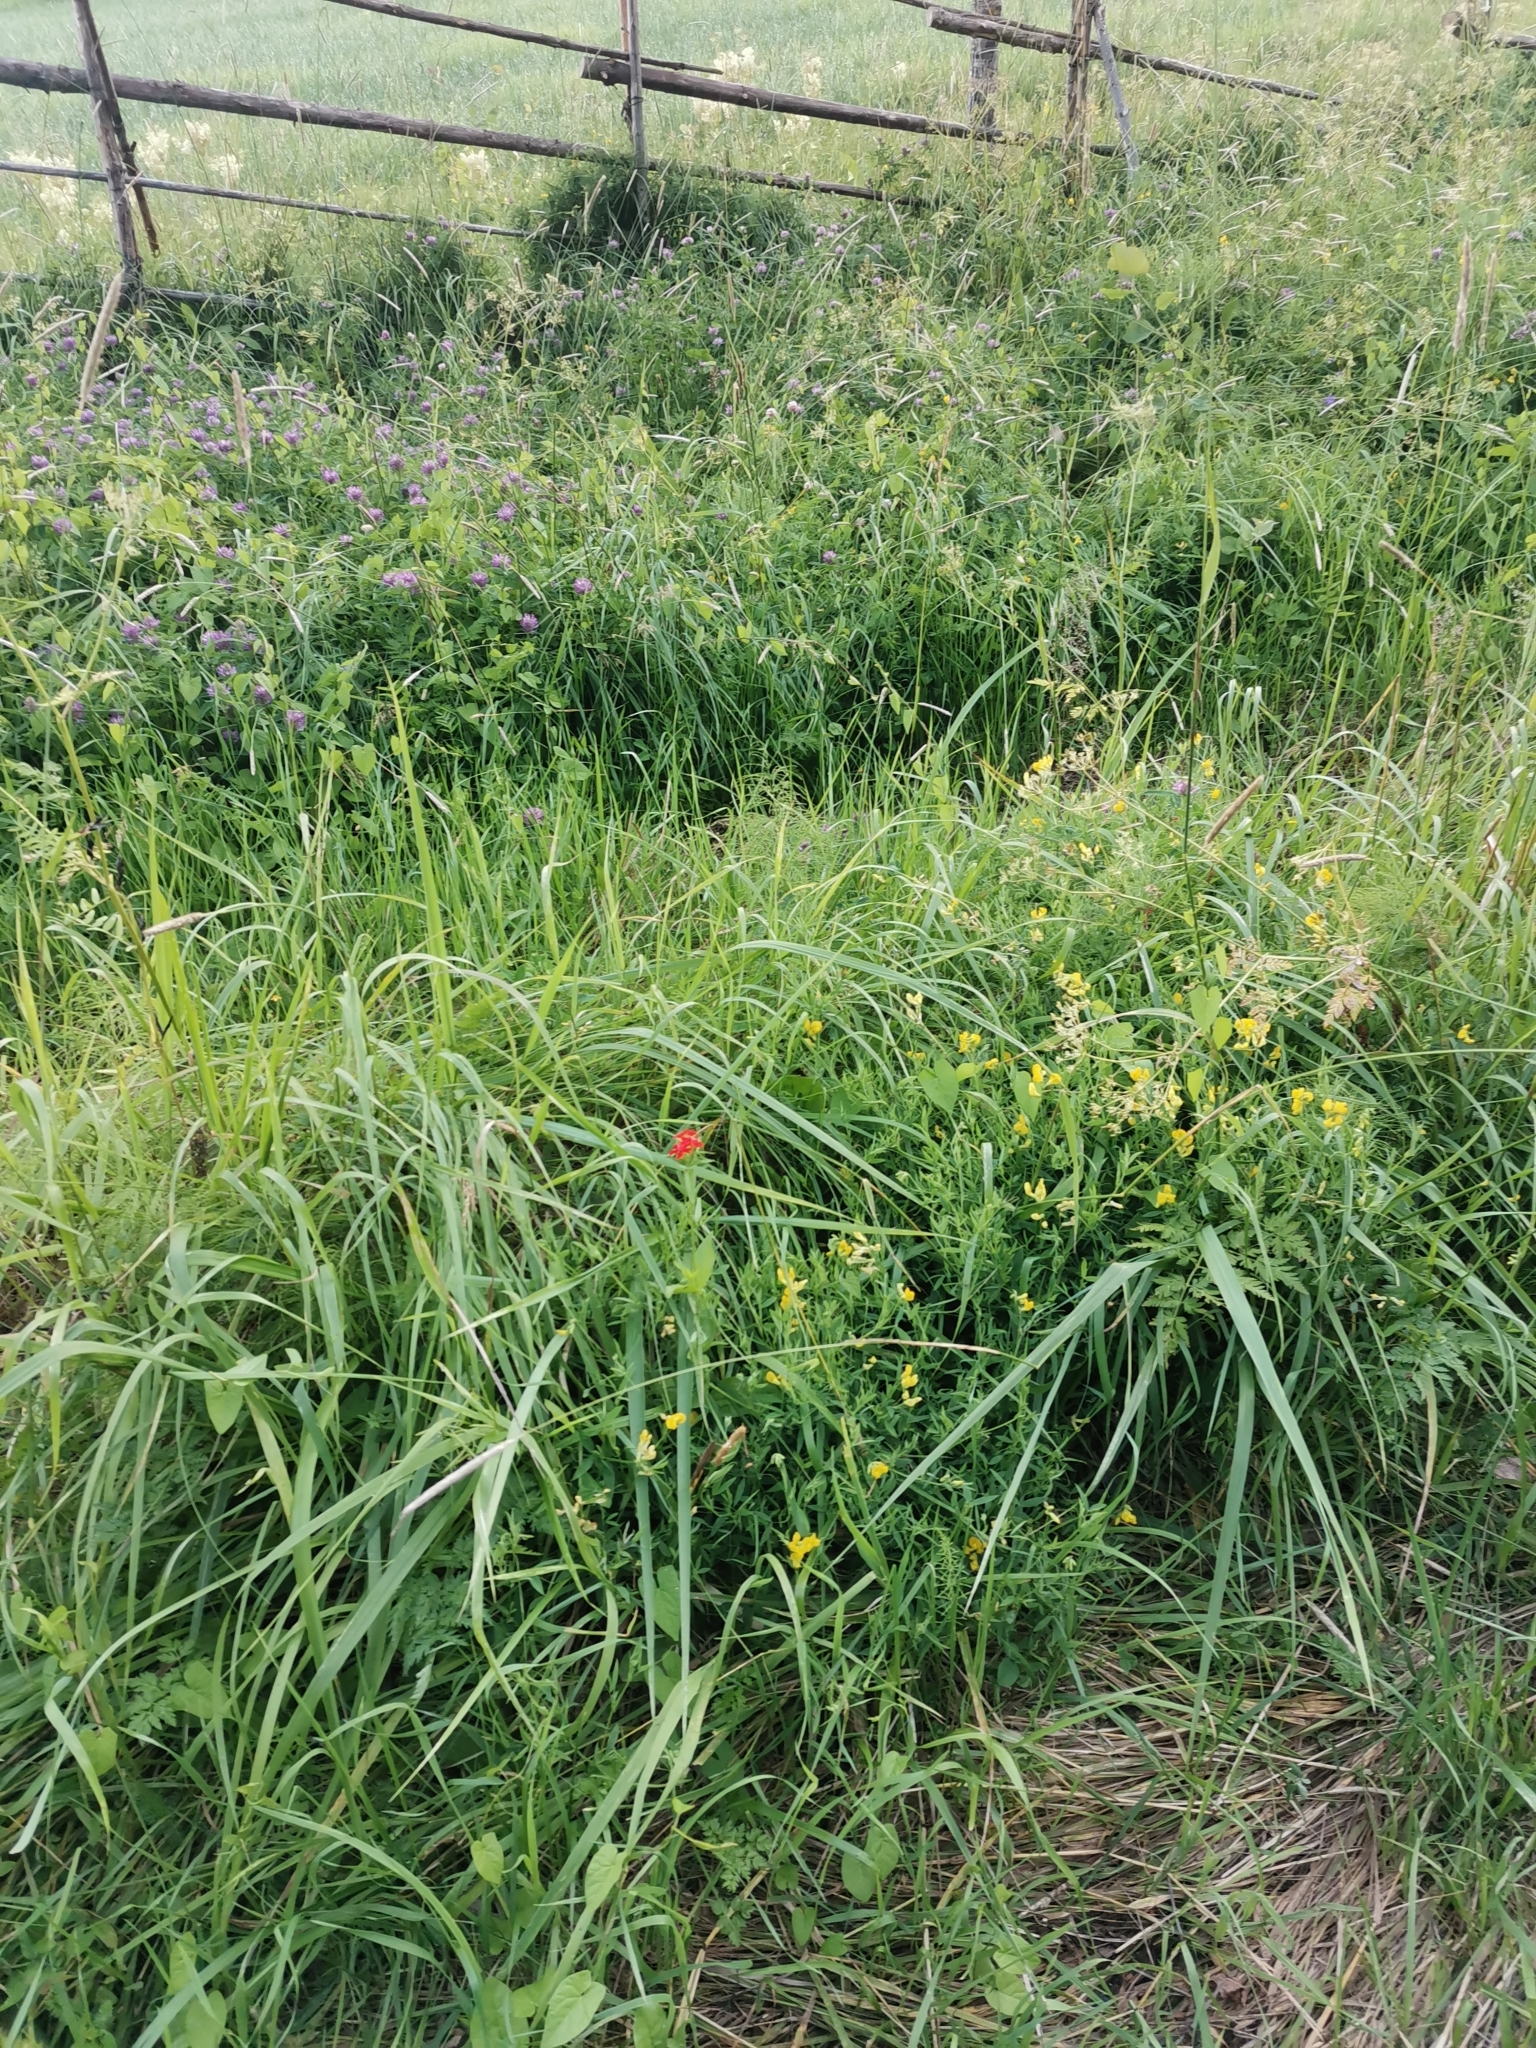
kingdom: Plantae
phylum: Tracheophyta
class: Magnoliopsida
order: Caryophyllales
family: Caryophyllaceae
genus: Silene
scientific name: Silene chalcedonica
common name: Maltese-cross
